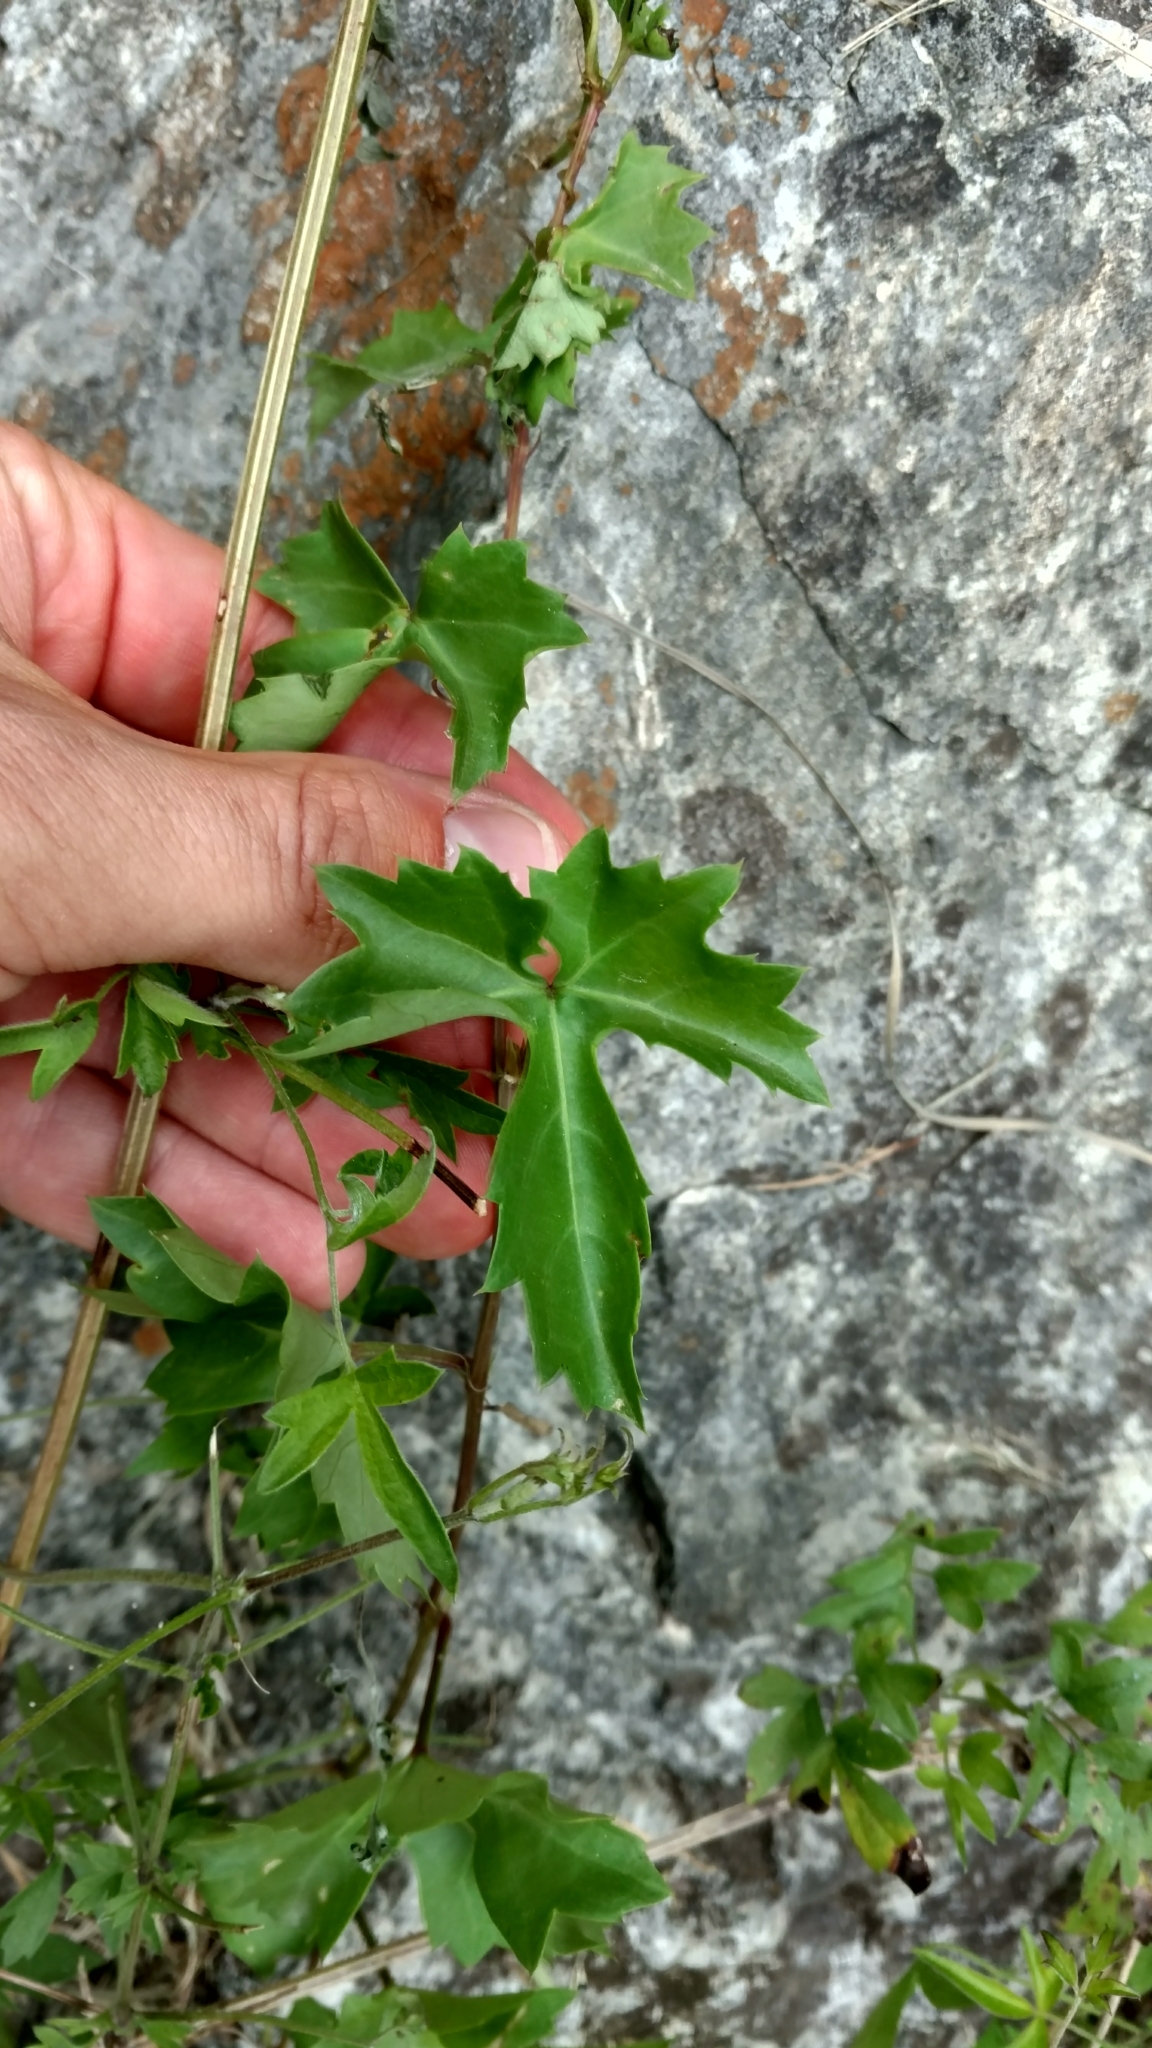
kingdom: Plantae
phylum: Tracheophyta
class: Magnoliopsida
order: Vitales
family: Vitaceae
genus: Cissus
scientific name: Cissus trifoliata
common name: Vine-sorrel
